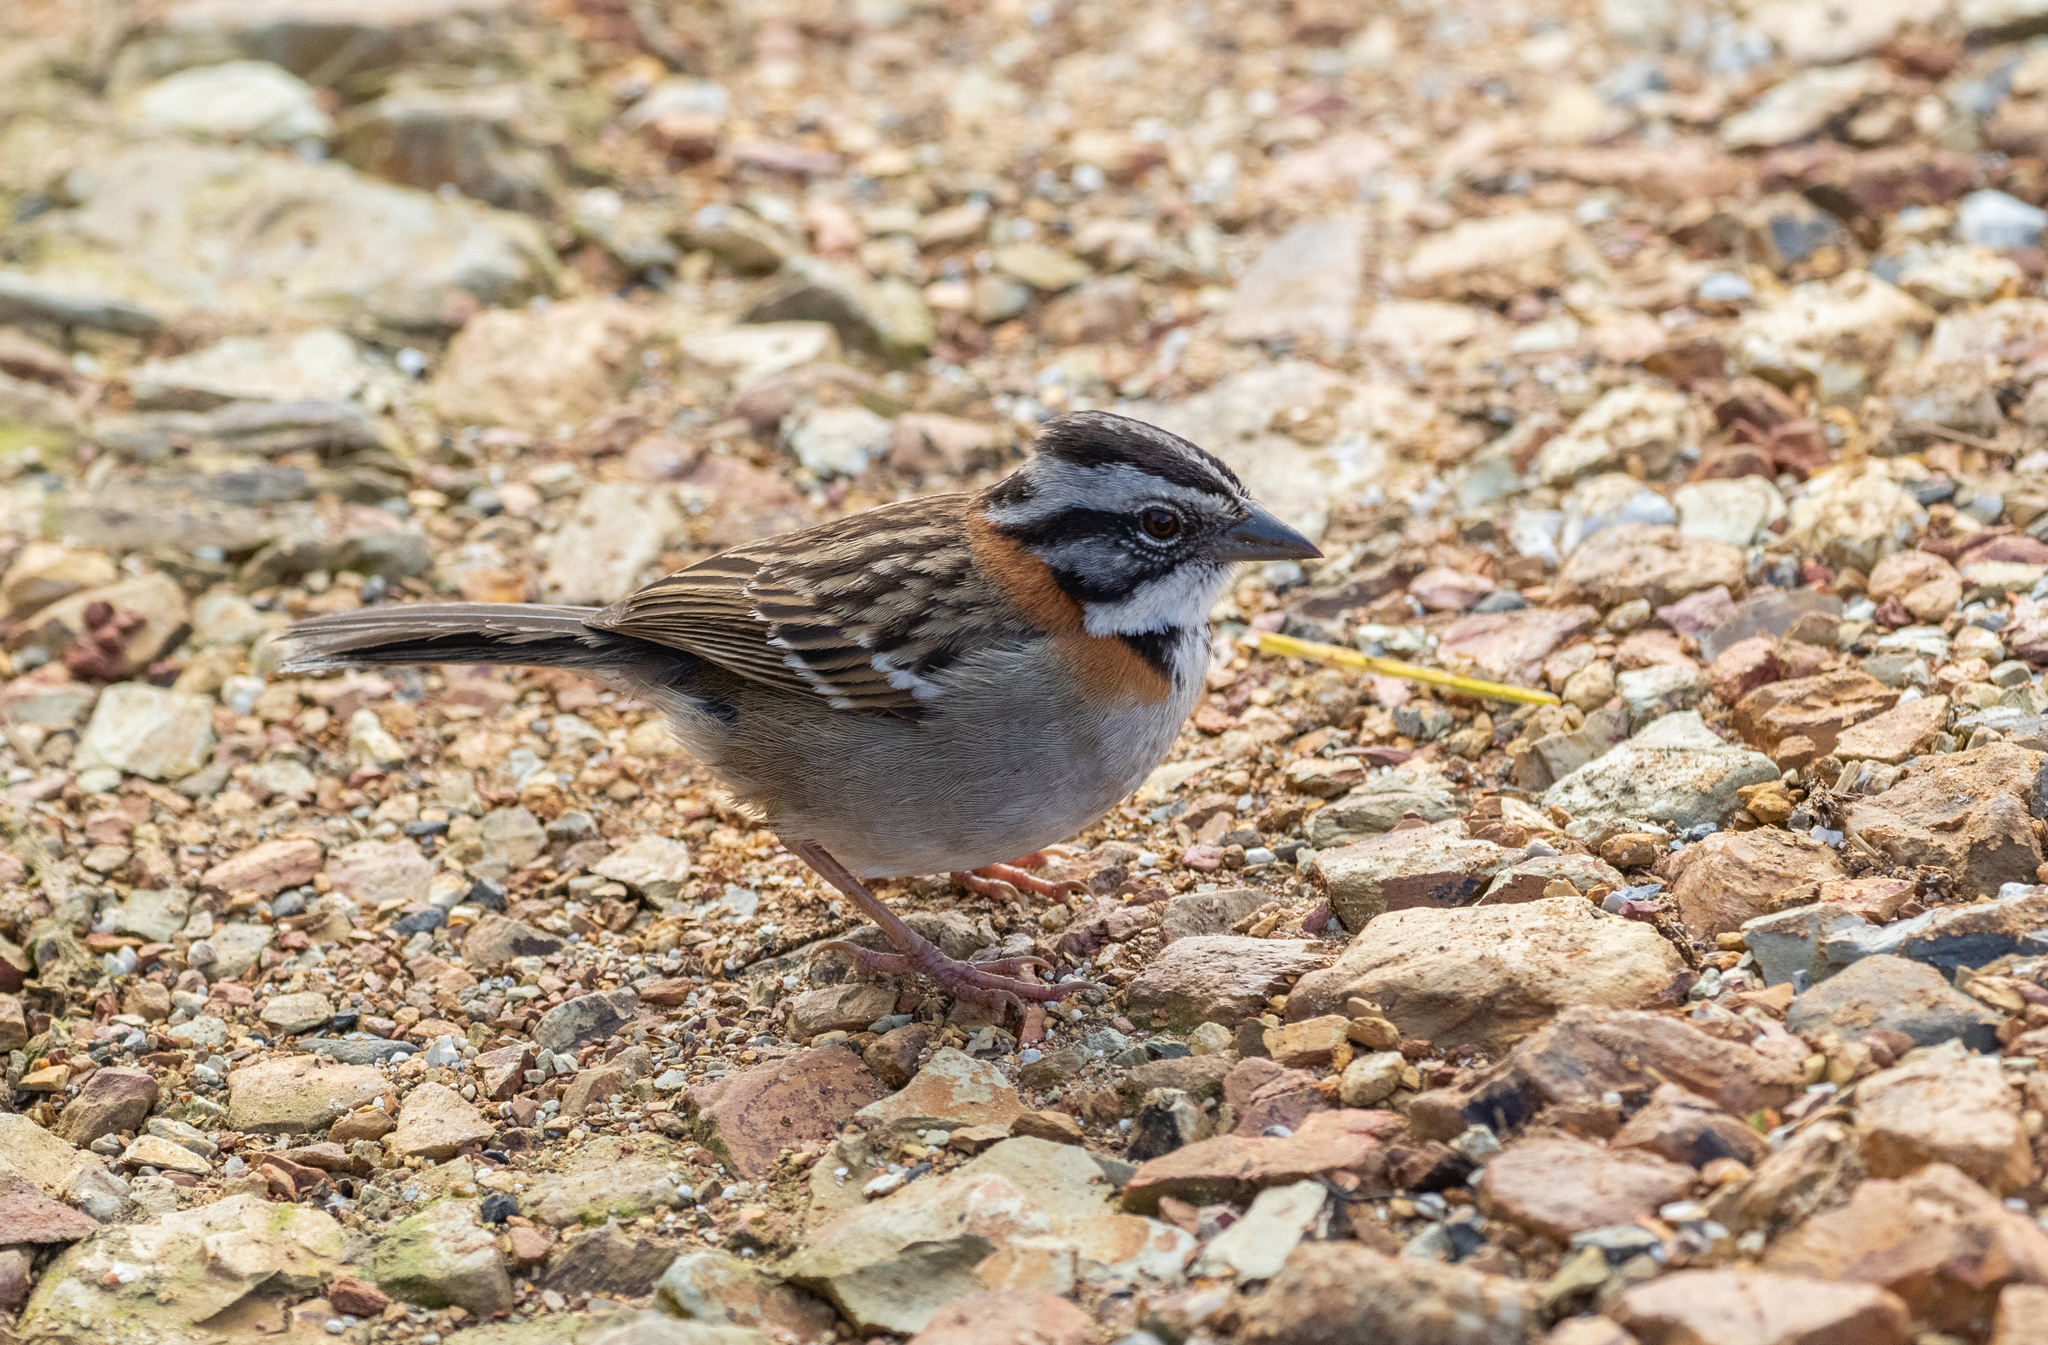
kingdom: Animalia
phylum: Chordata
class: Aves
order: Passeriformes
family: Passerellidae
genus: Zonotrichia
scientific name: Zonotrichia capensis
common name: Rufous-collared sparrow
